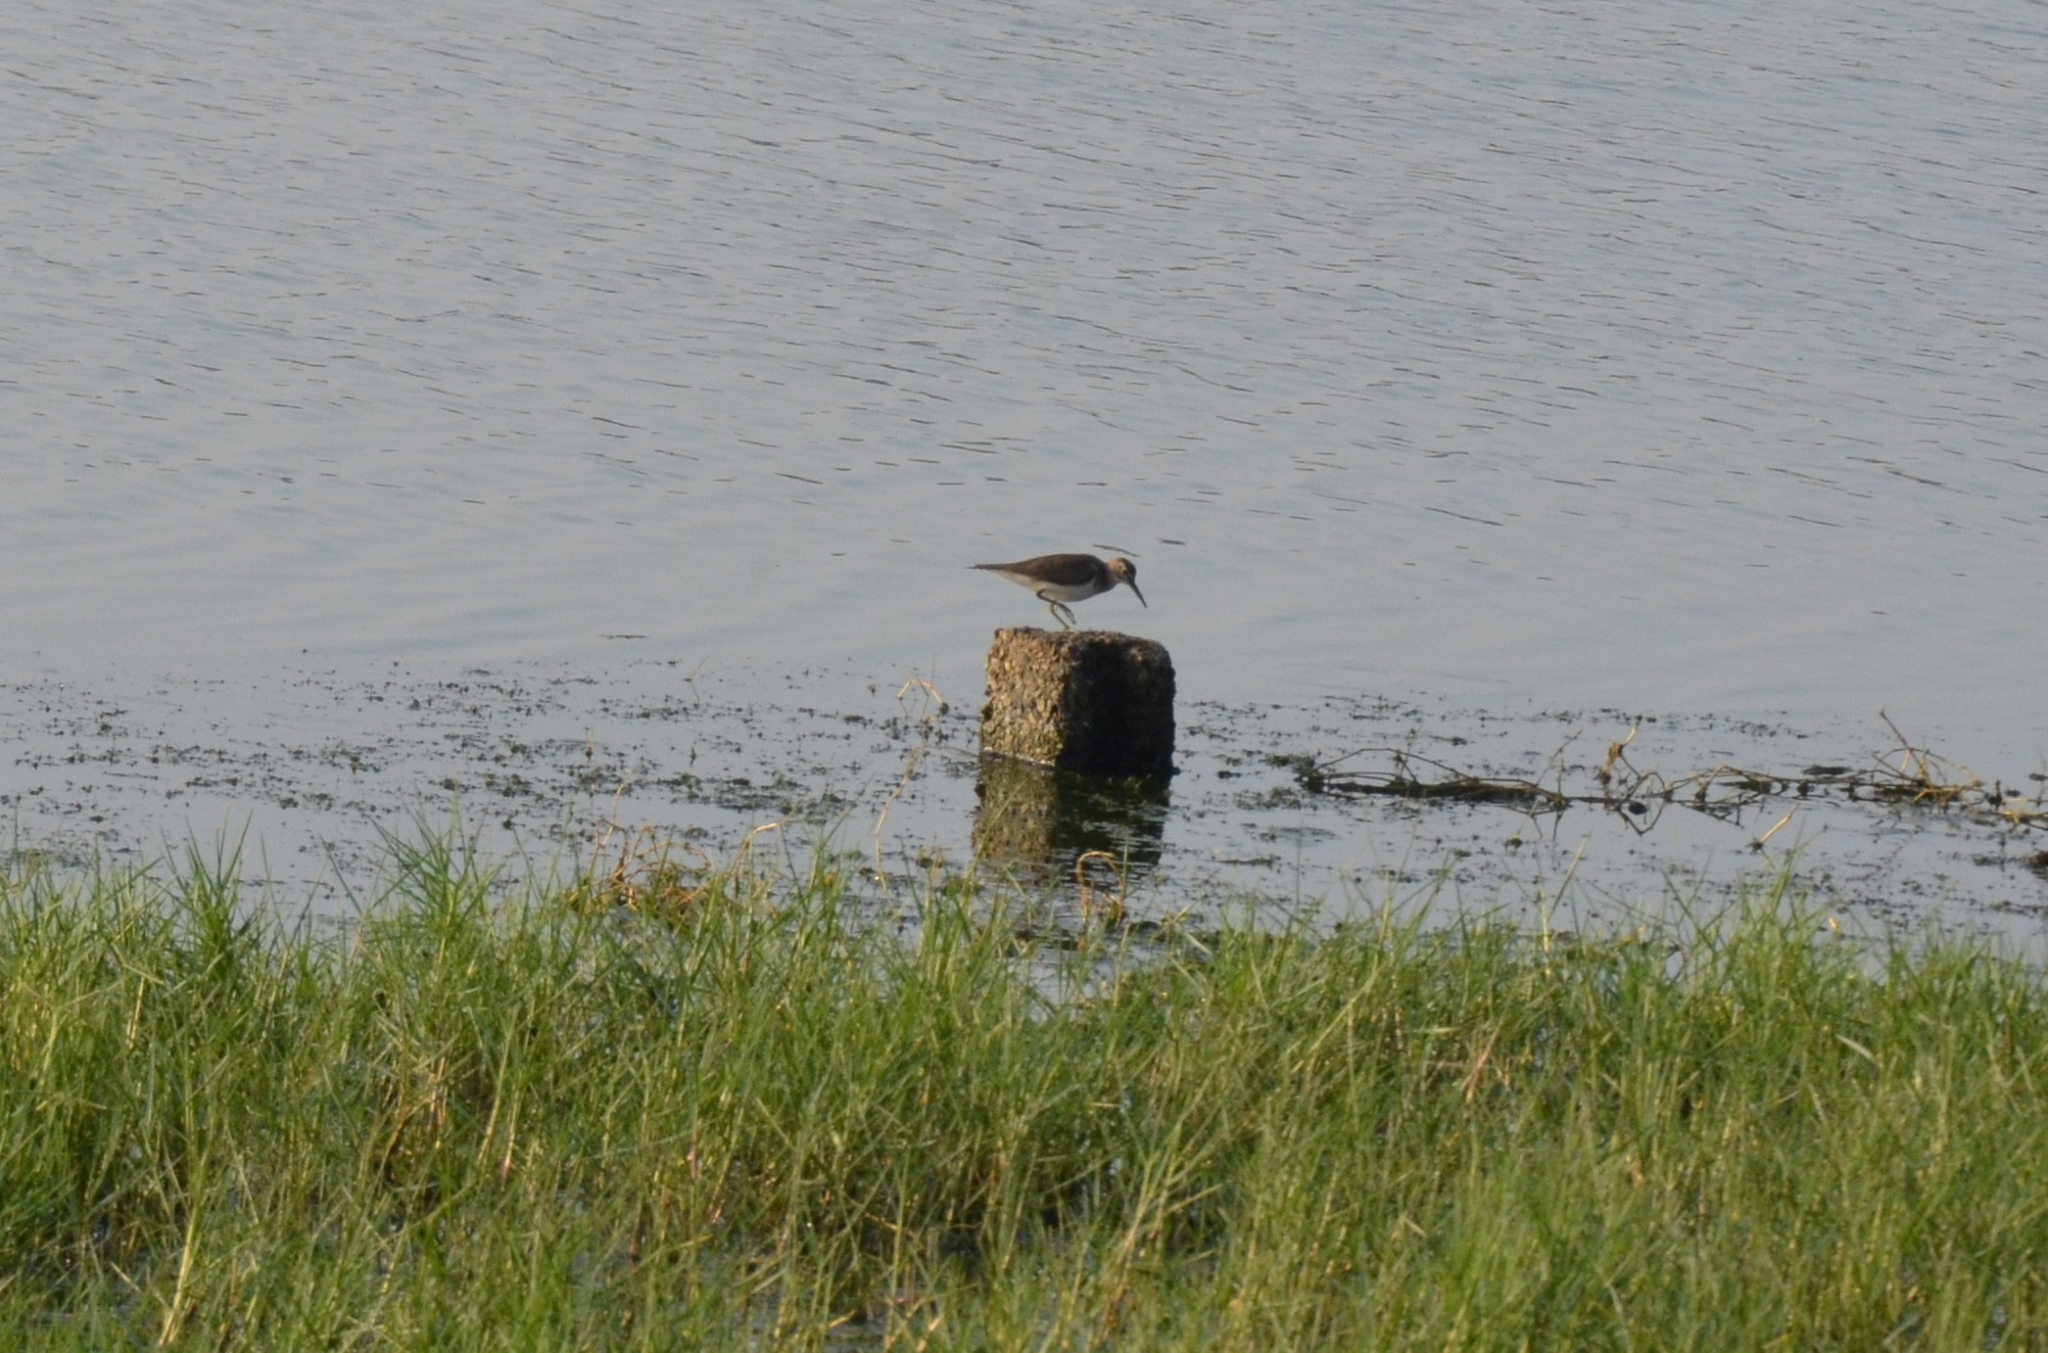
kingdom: Animalia
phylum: Chordata
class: Aves
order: Charadriiformes
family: Scolopacidae
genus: Actitis
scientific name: Actitis hypoleucos
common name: Common sandpiper
